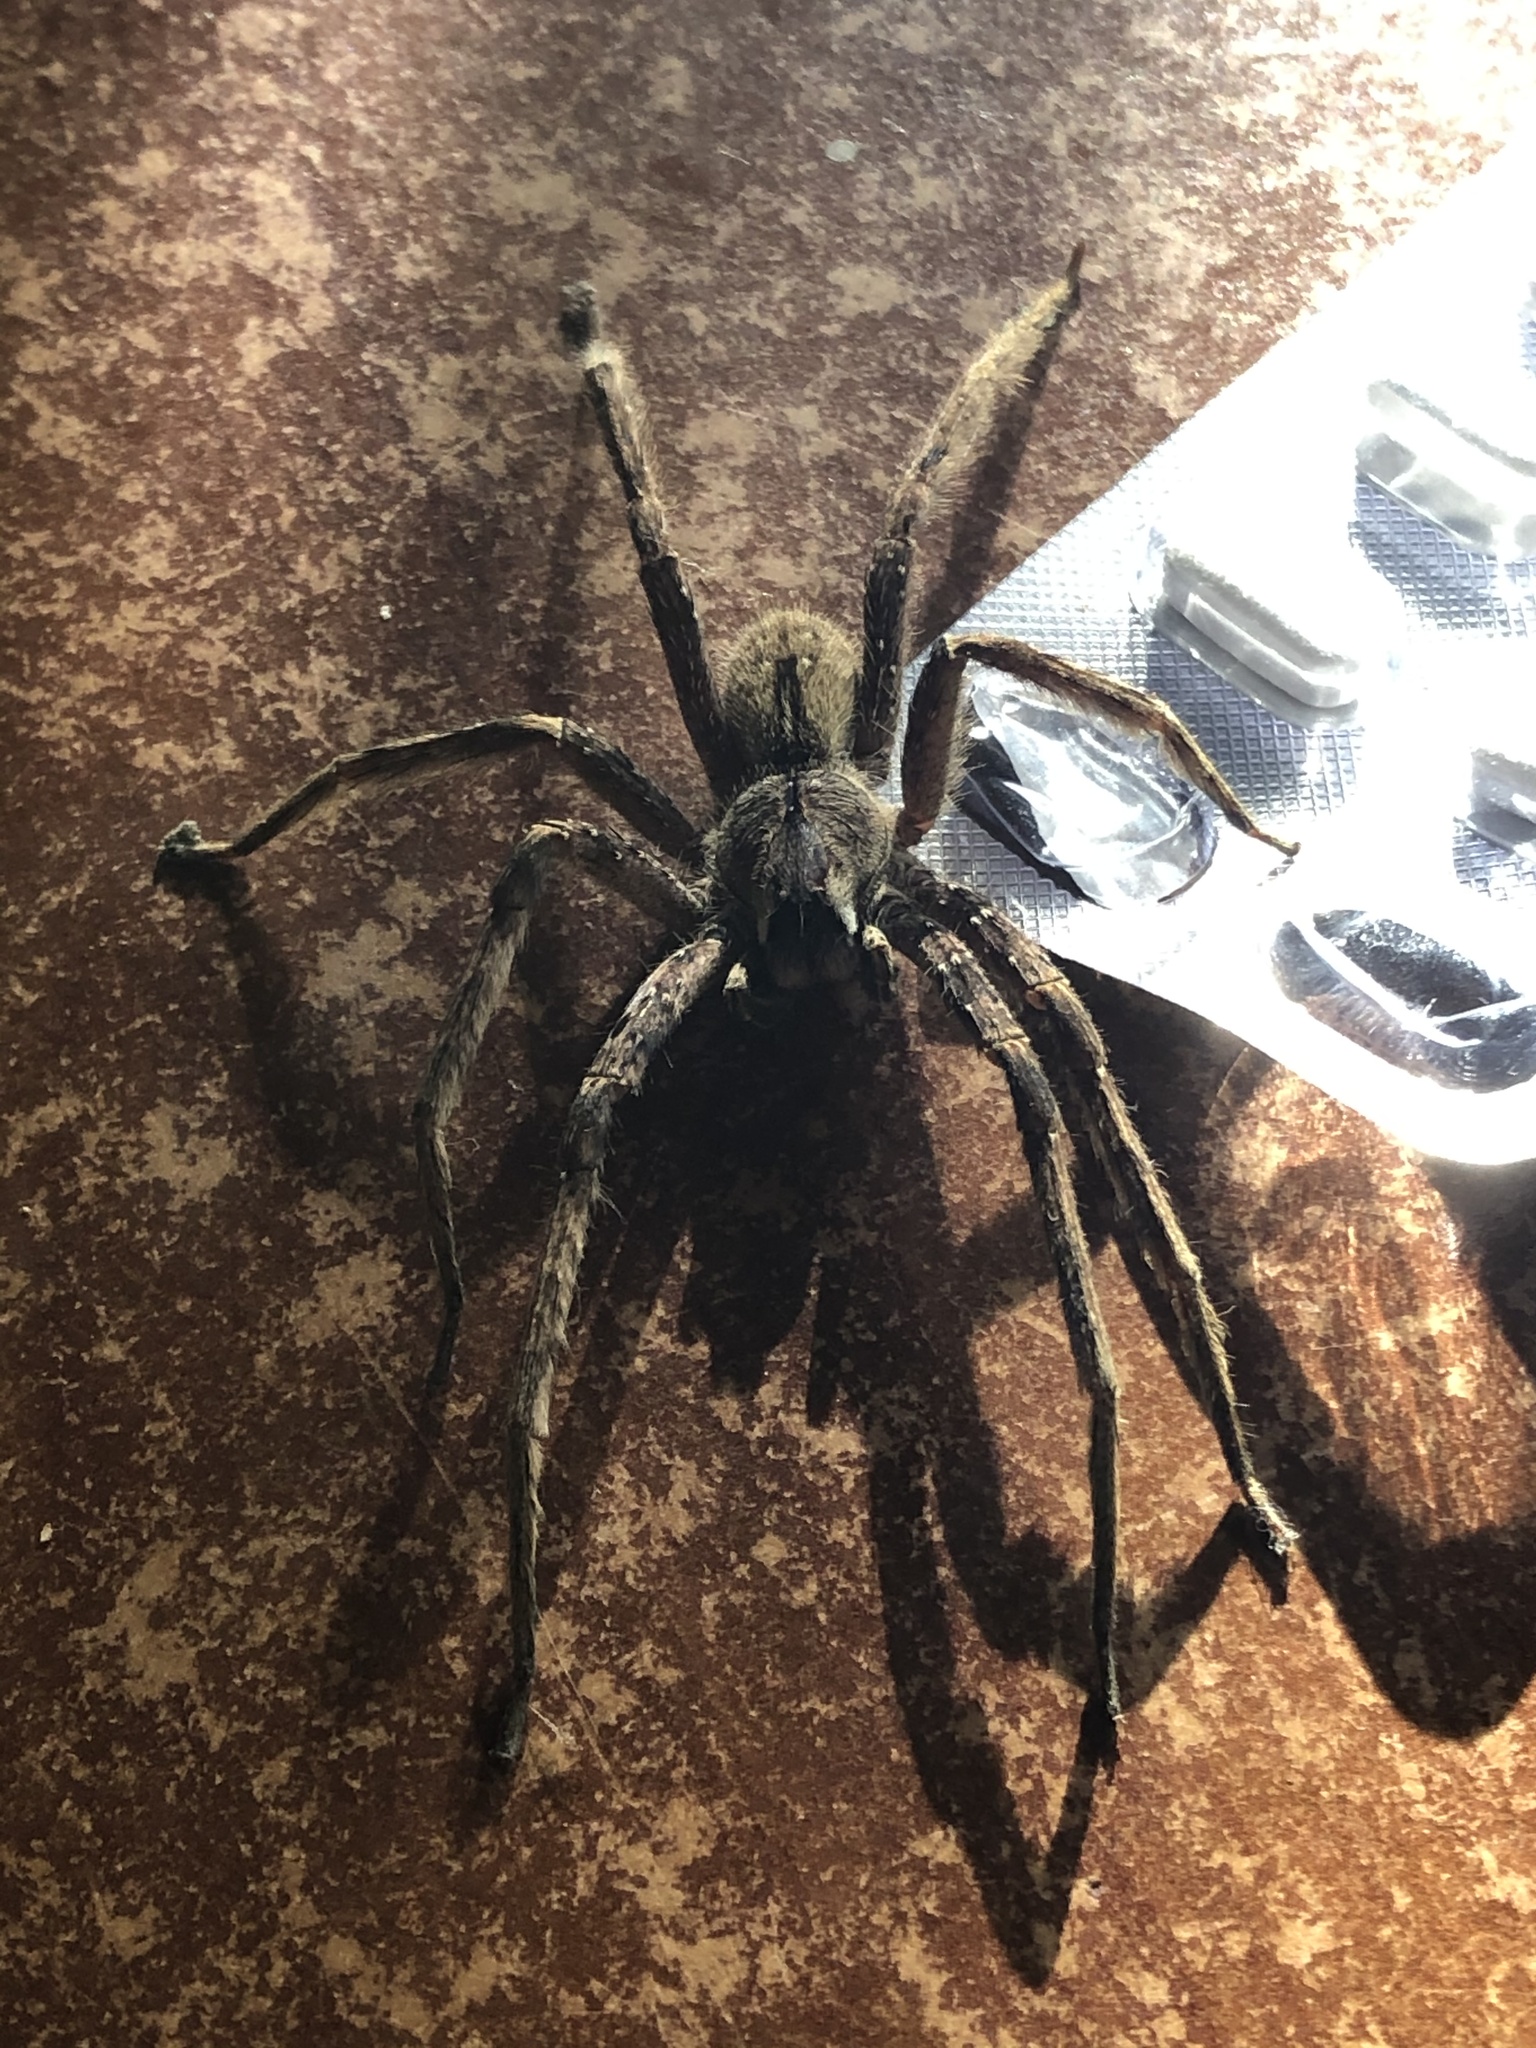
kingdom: Animalia
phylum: Arthropoda
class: Arachnida
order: Araneae
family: Ctenidae
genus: Phoneutria
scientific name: Phoneutria boliviensis
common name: Wandering spiders
